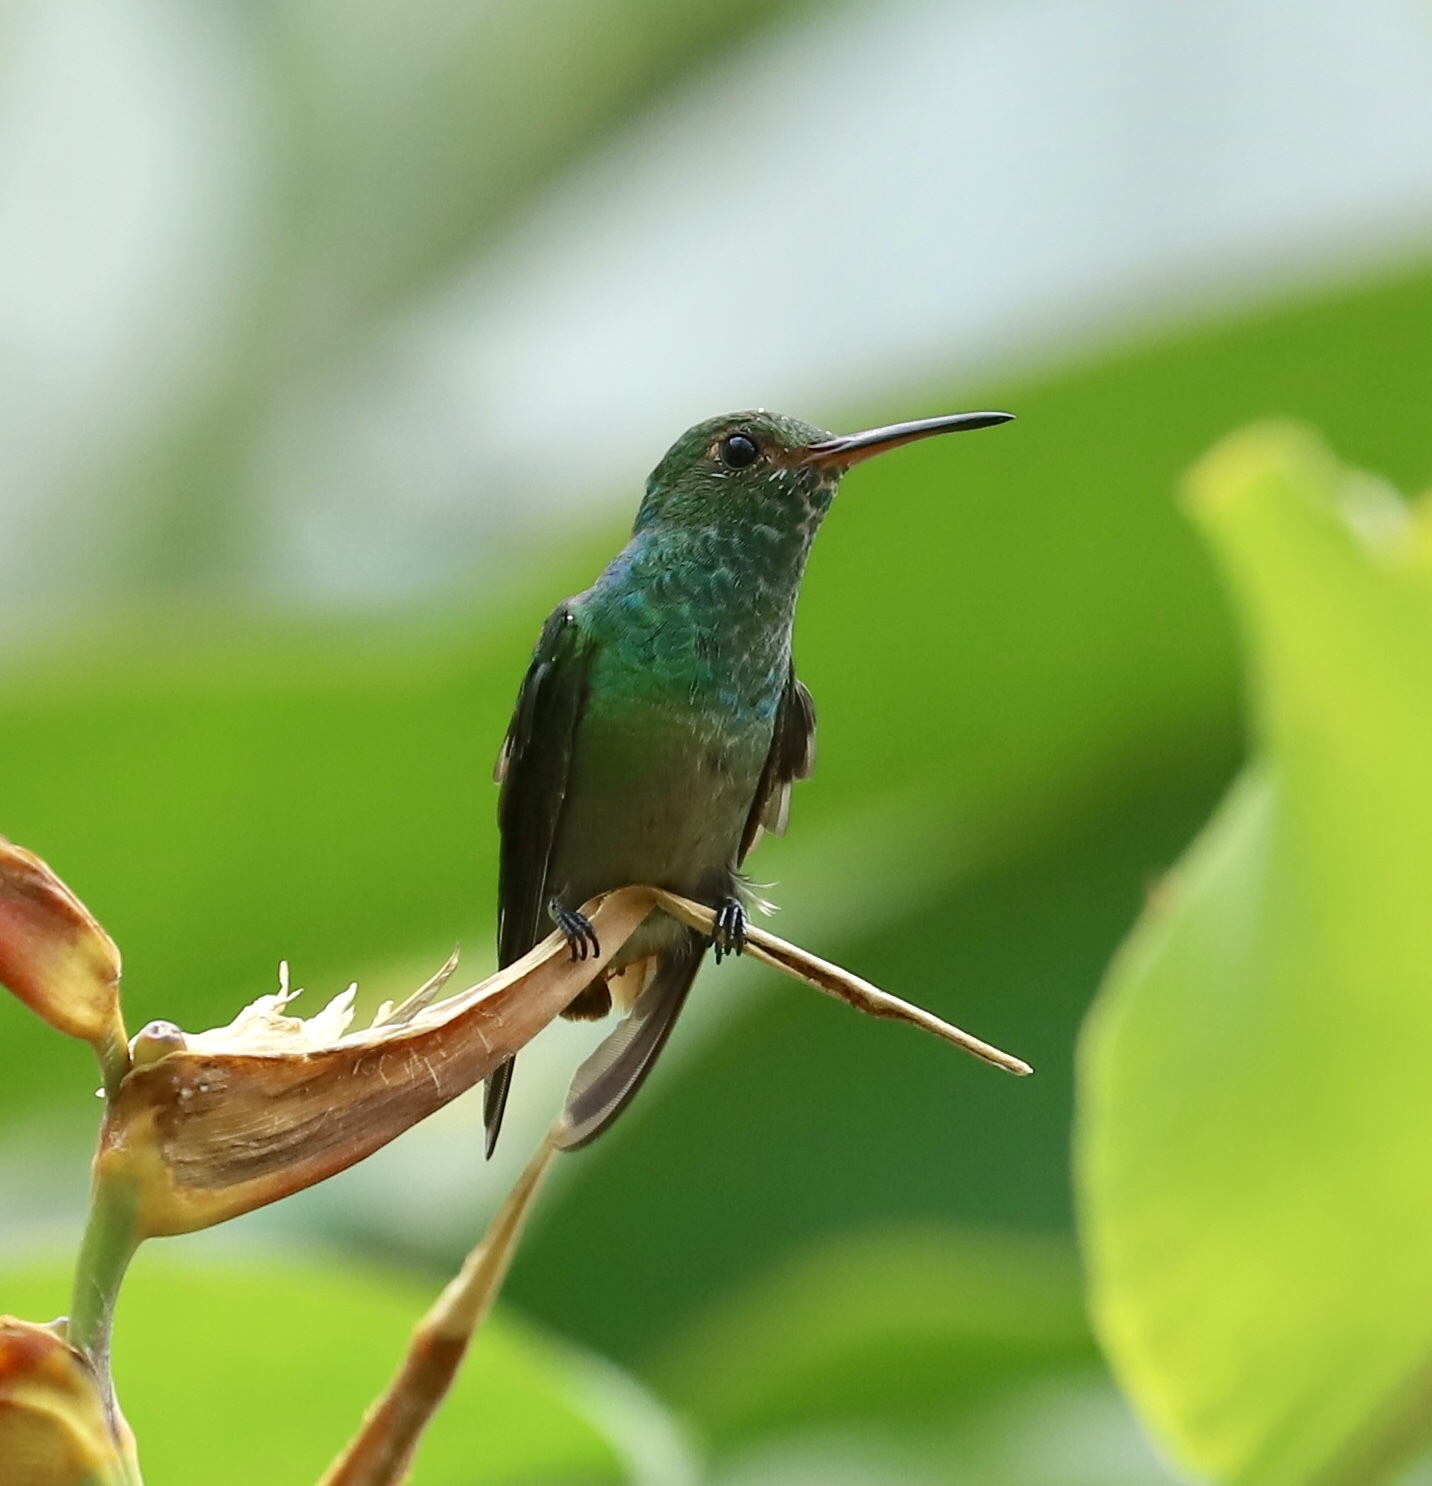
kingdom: Animalia
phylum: Chordata
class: Aves
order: Apodiformes
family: Trochilidae
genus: Amazilia
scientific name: Amazilia tzacatl
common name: Rufous-tailed hummingbird
